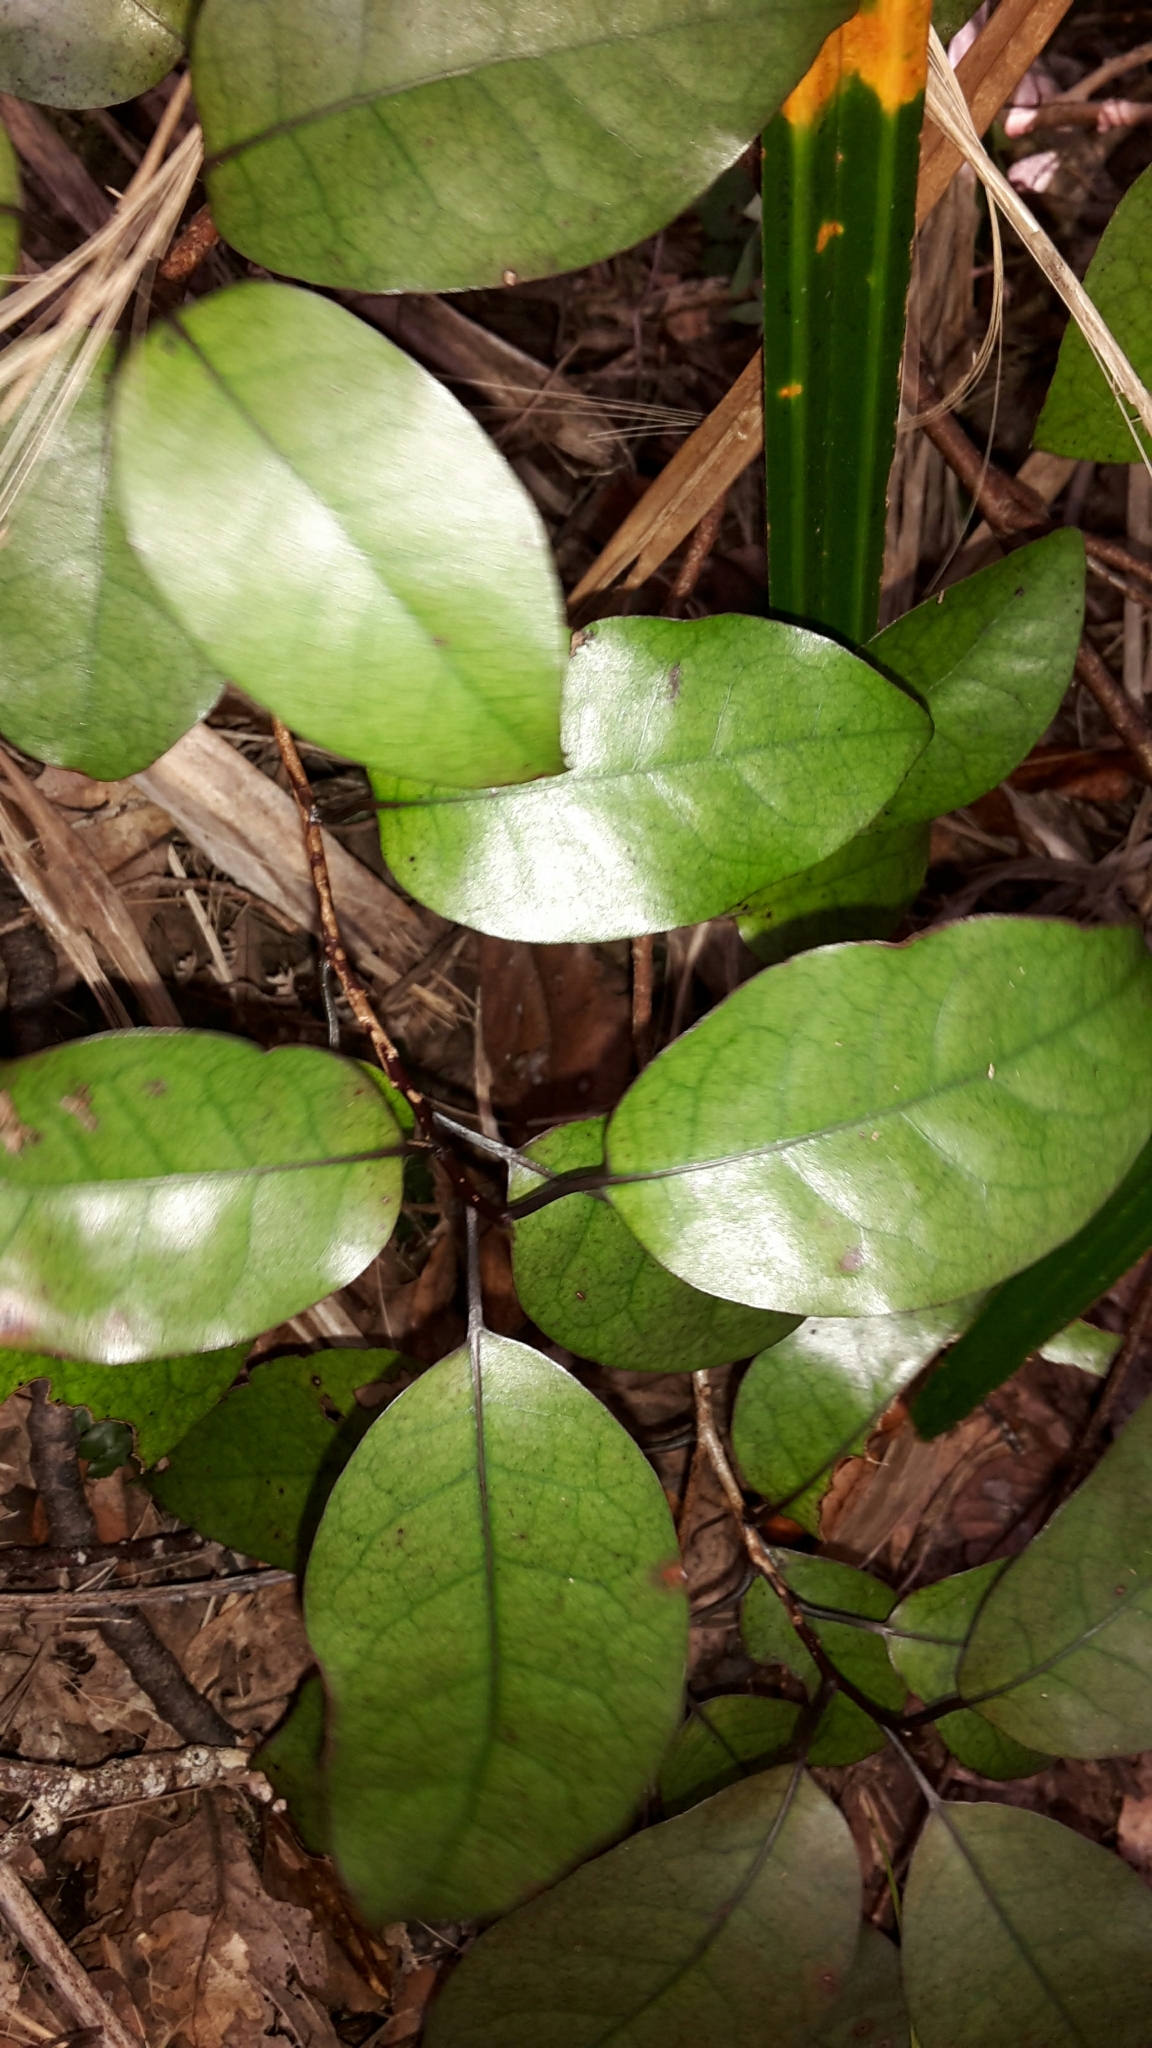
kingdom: Plantae
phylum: Tracheophyta
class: Magnoliopsida
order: Laurales
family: Lauraceae
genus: Litsea
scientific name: Litsea calicaris
